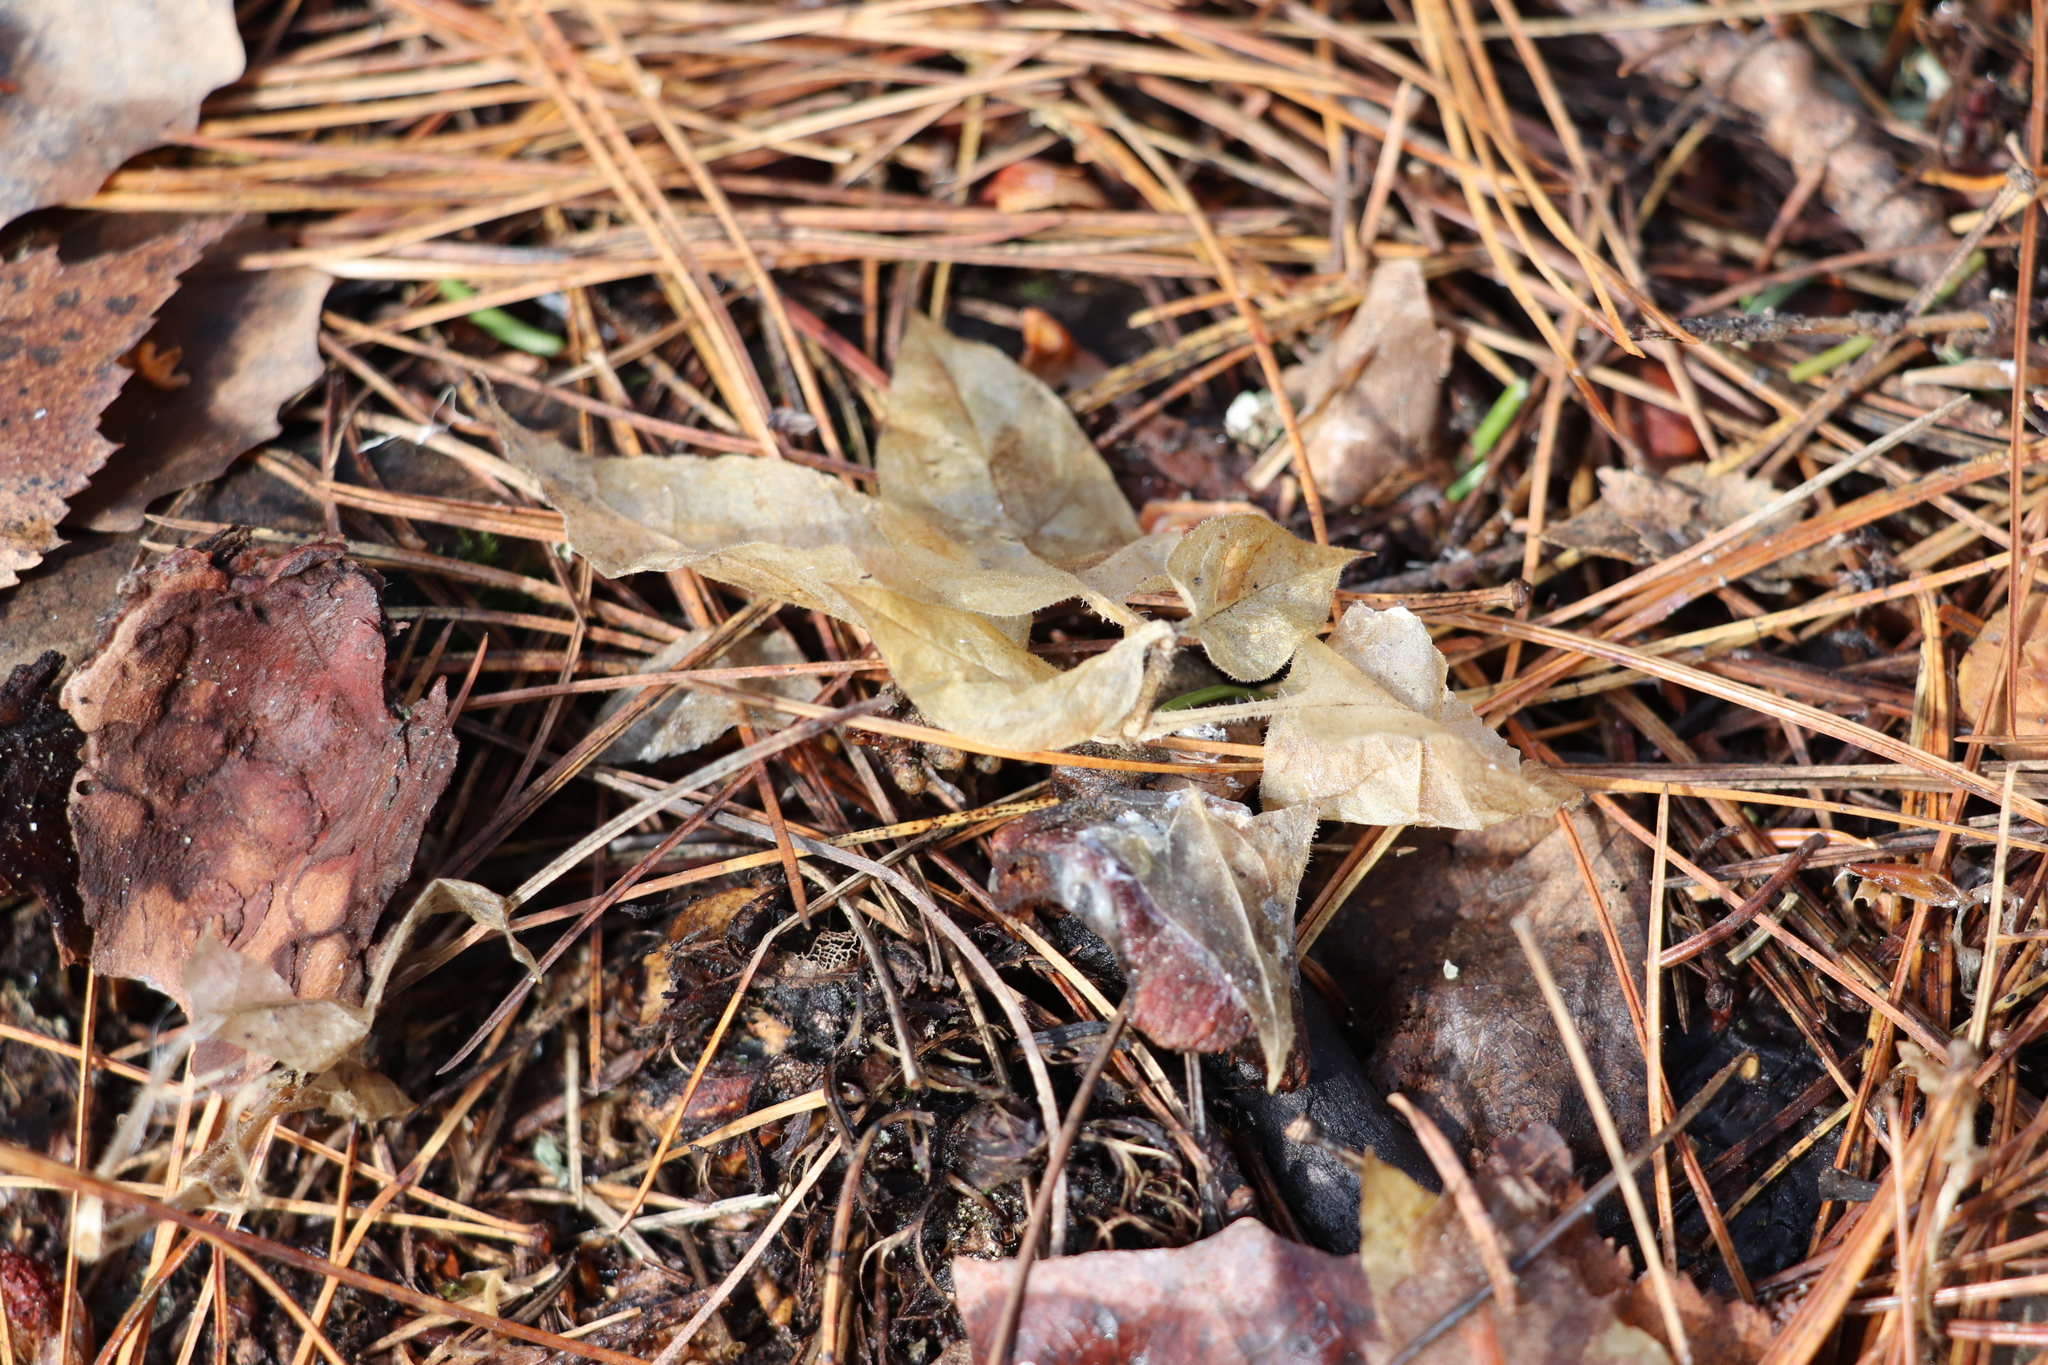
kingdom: Plantae
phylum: Tracheophyta
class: Magnoliopsida
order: Caryophyllales
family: Caryophyllaceae
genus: Stellaria
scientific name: Stellaria bungeana
